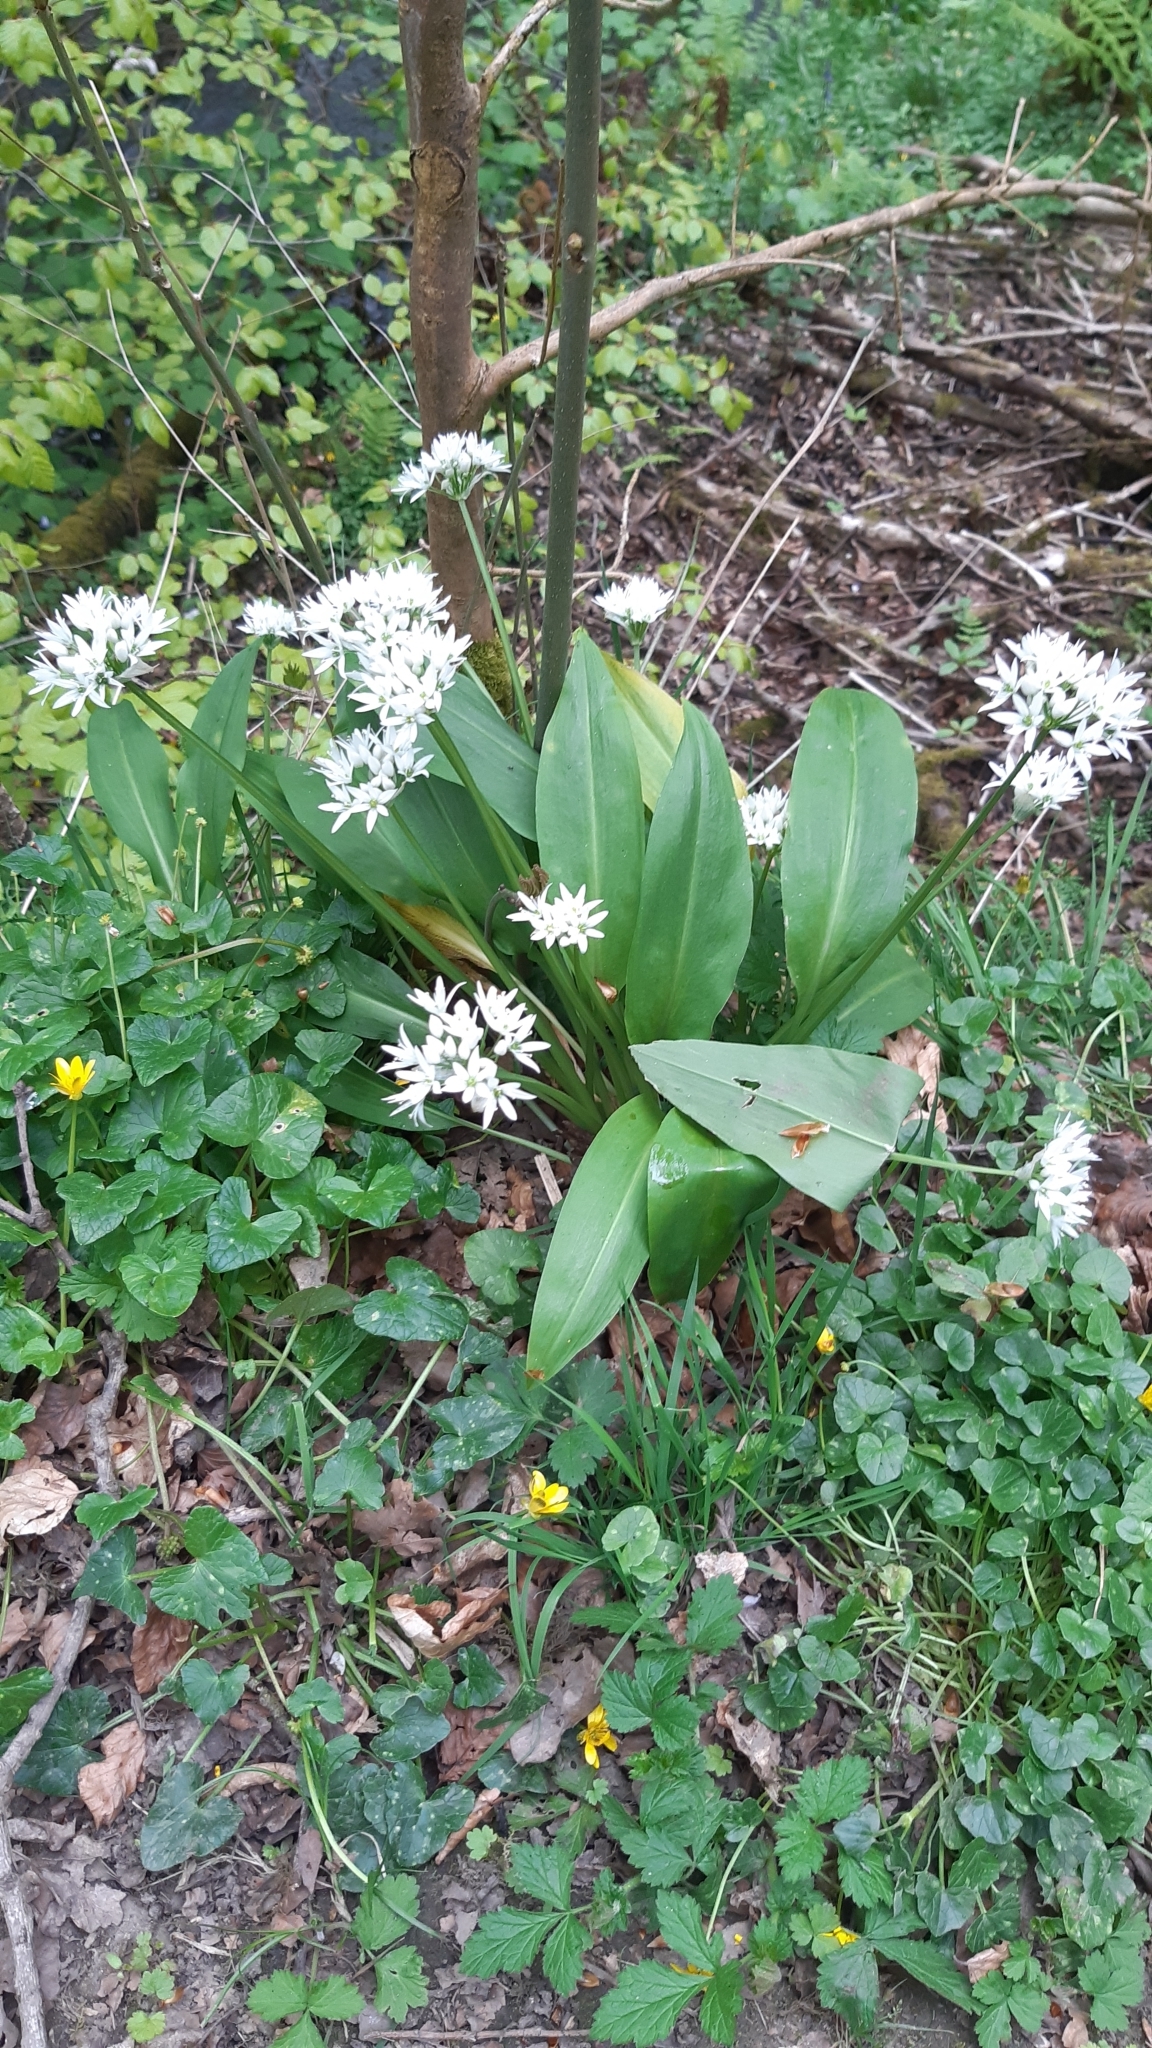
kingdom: Plantae
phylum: Tracheophyta
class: Liliopsida
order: Asparagales
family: Amaryllidaceae
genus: Allium
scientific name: Allium ursinum
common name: Ramsons
